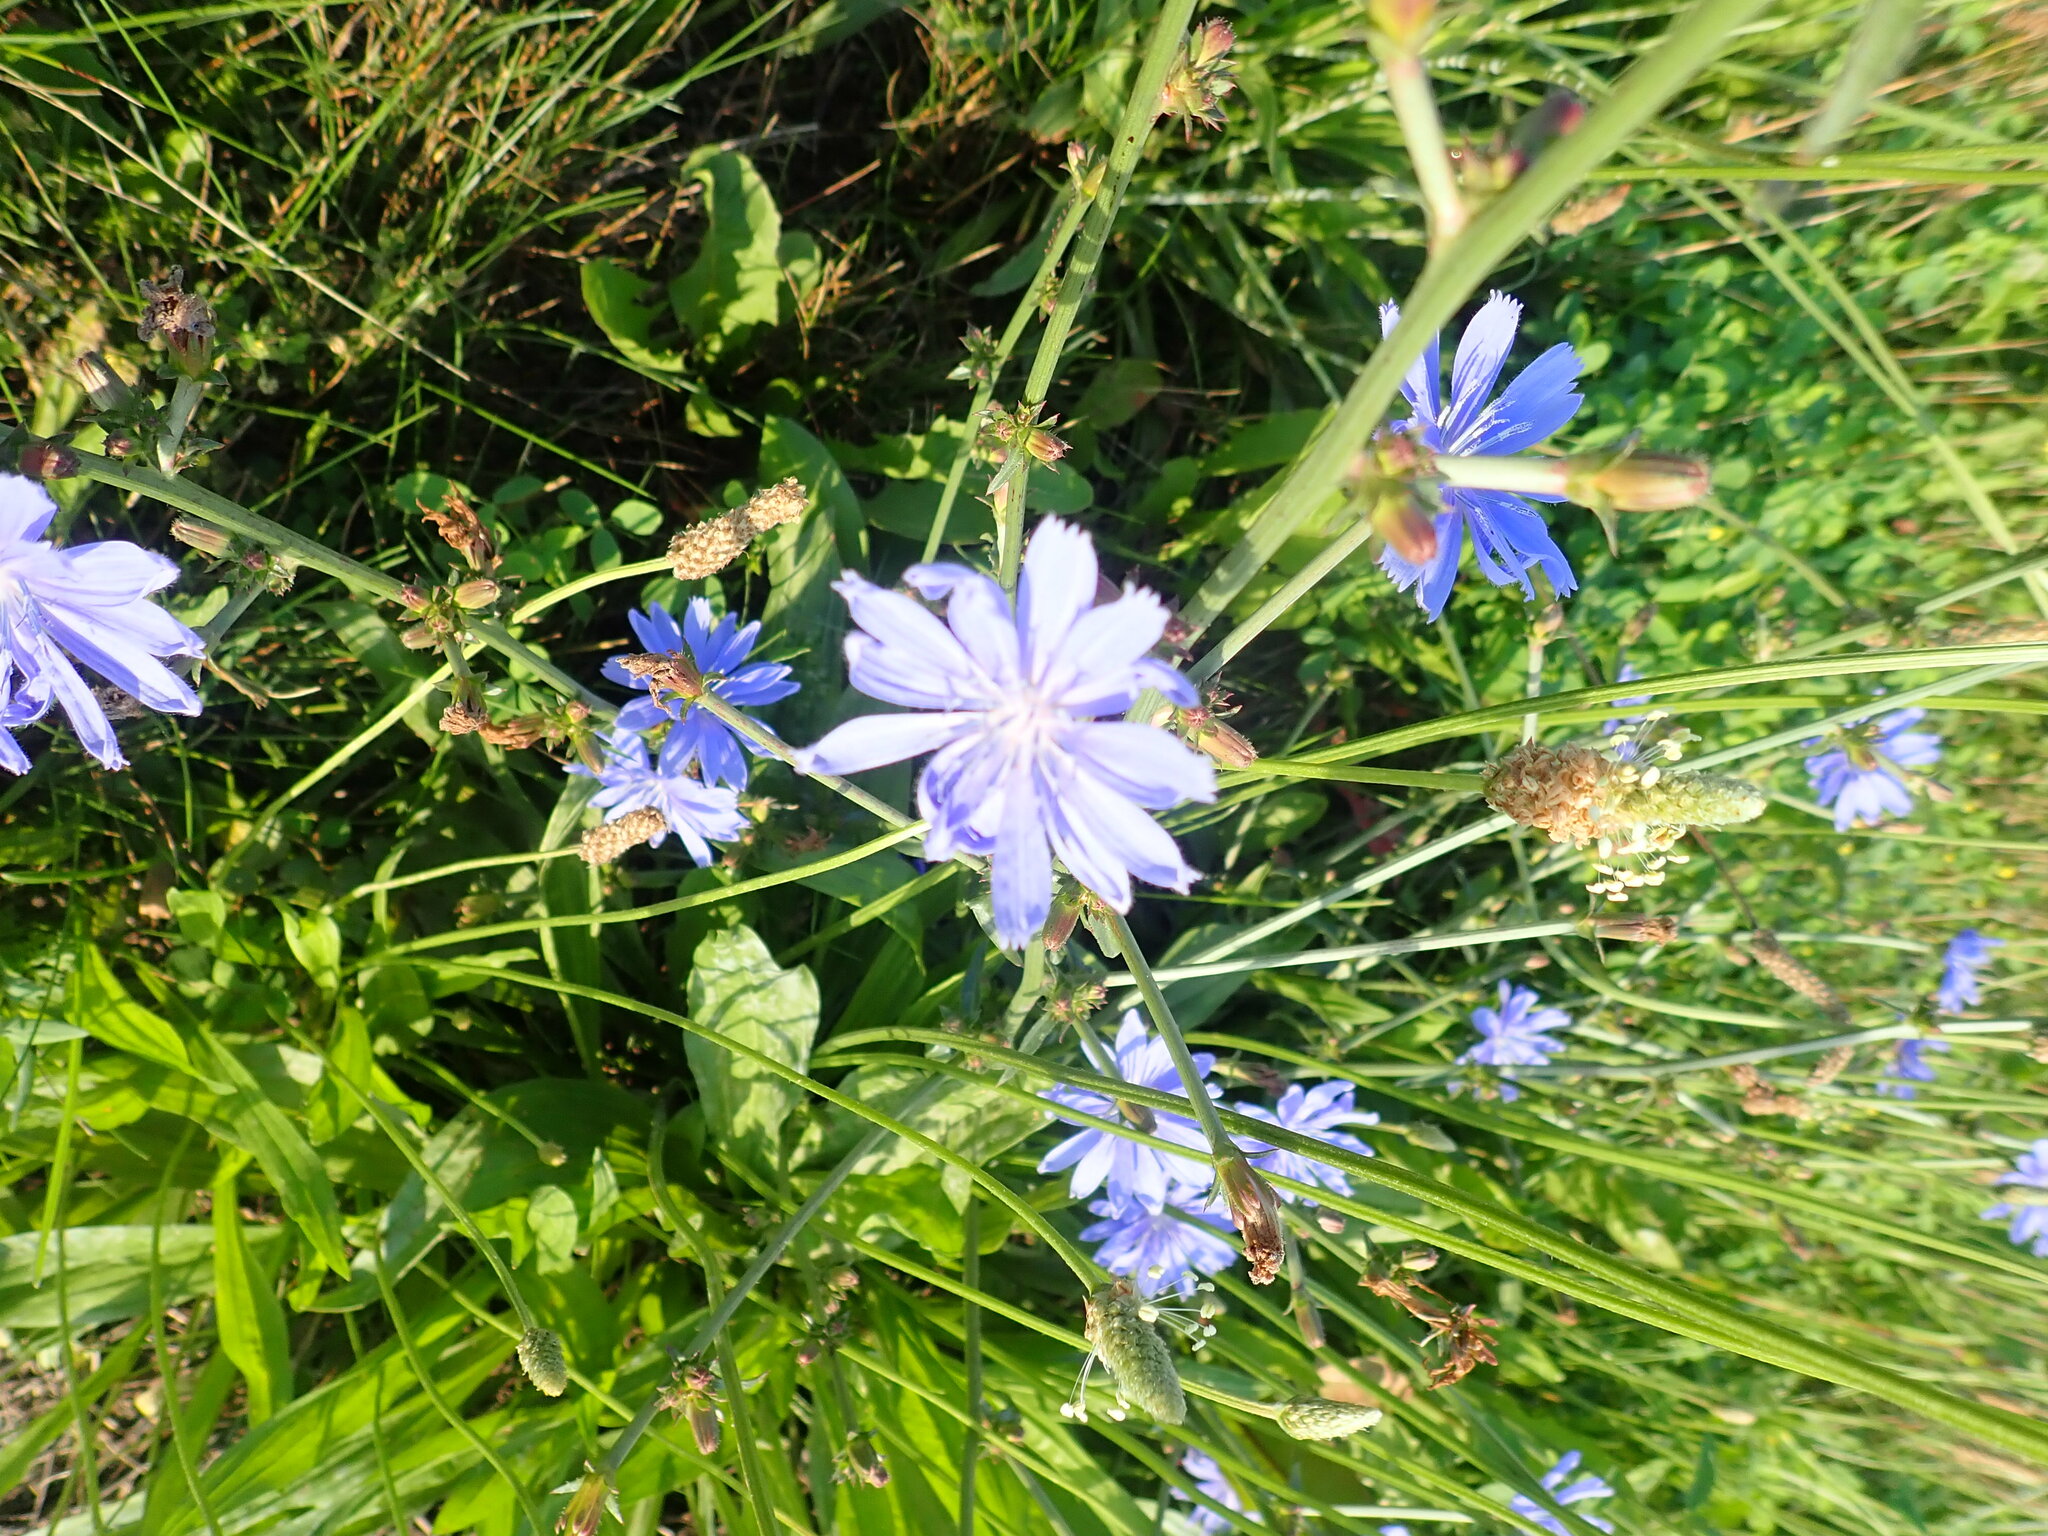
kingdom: Plantae
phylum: Tracheophyta
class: Magnoliopsida
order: Asterales
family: Asteraceae
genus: Cichorium
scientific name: Cichorium intybus
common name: Chicory
